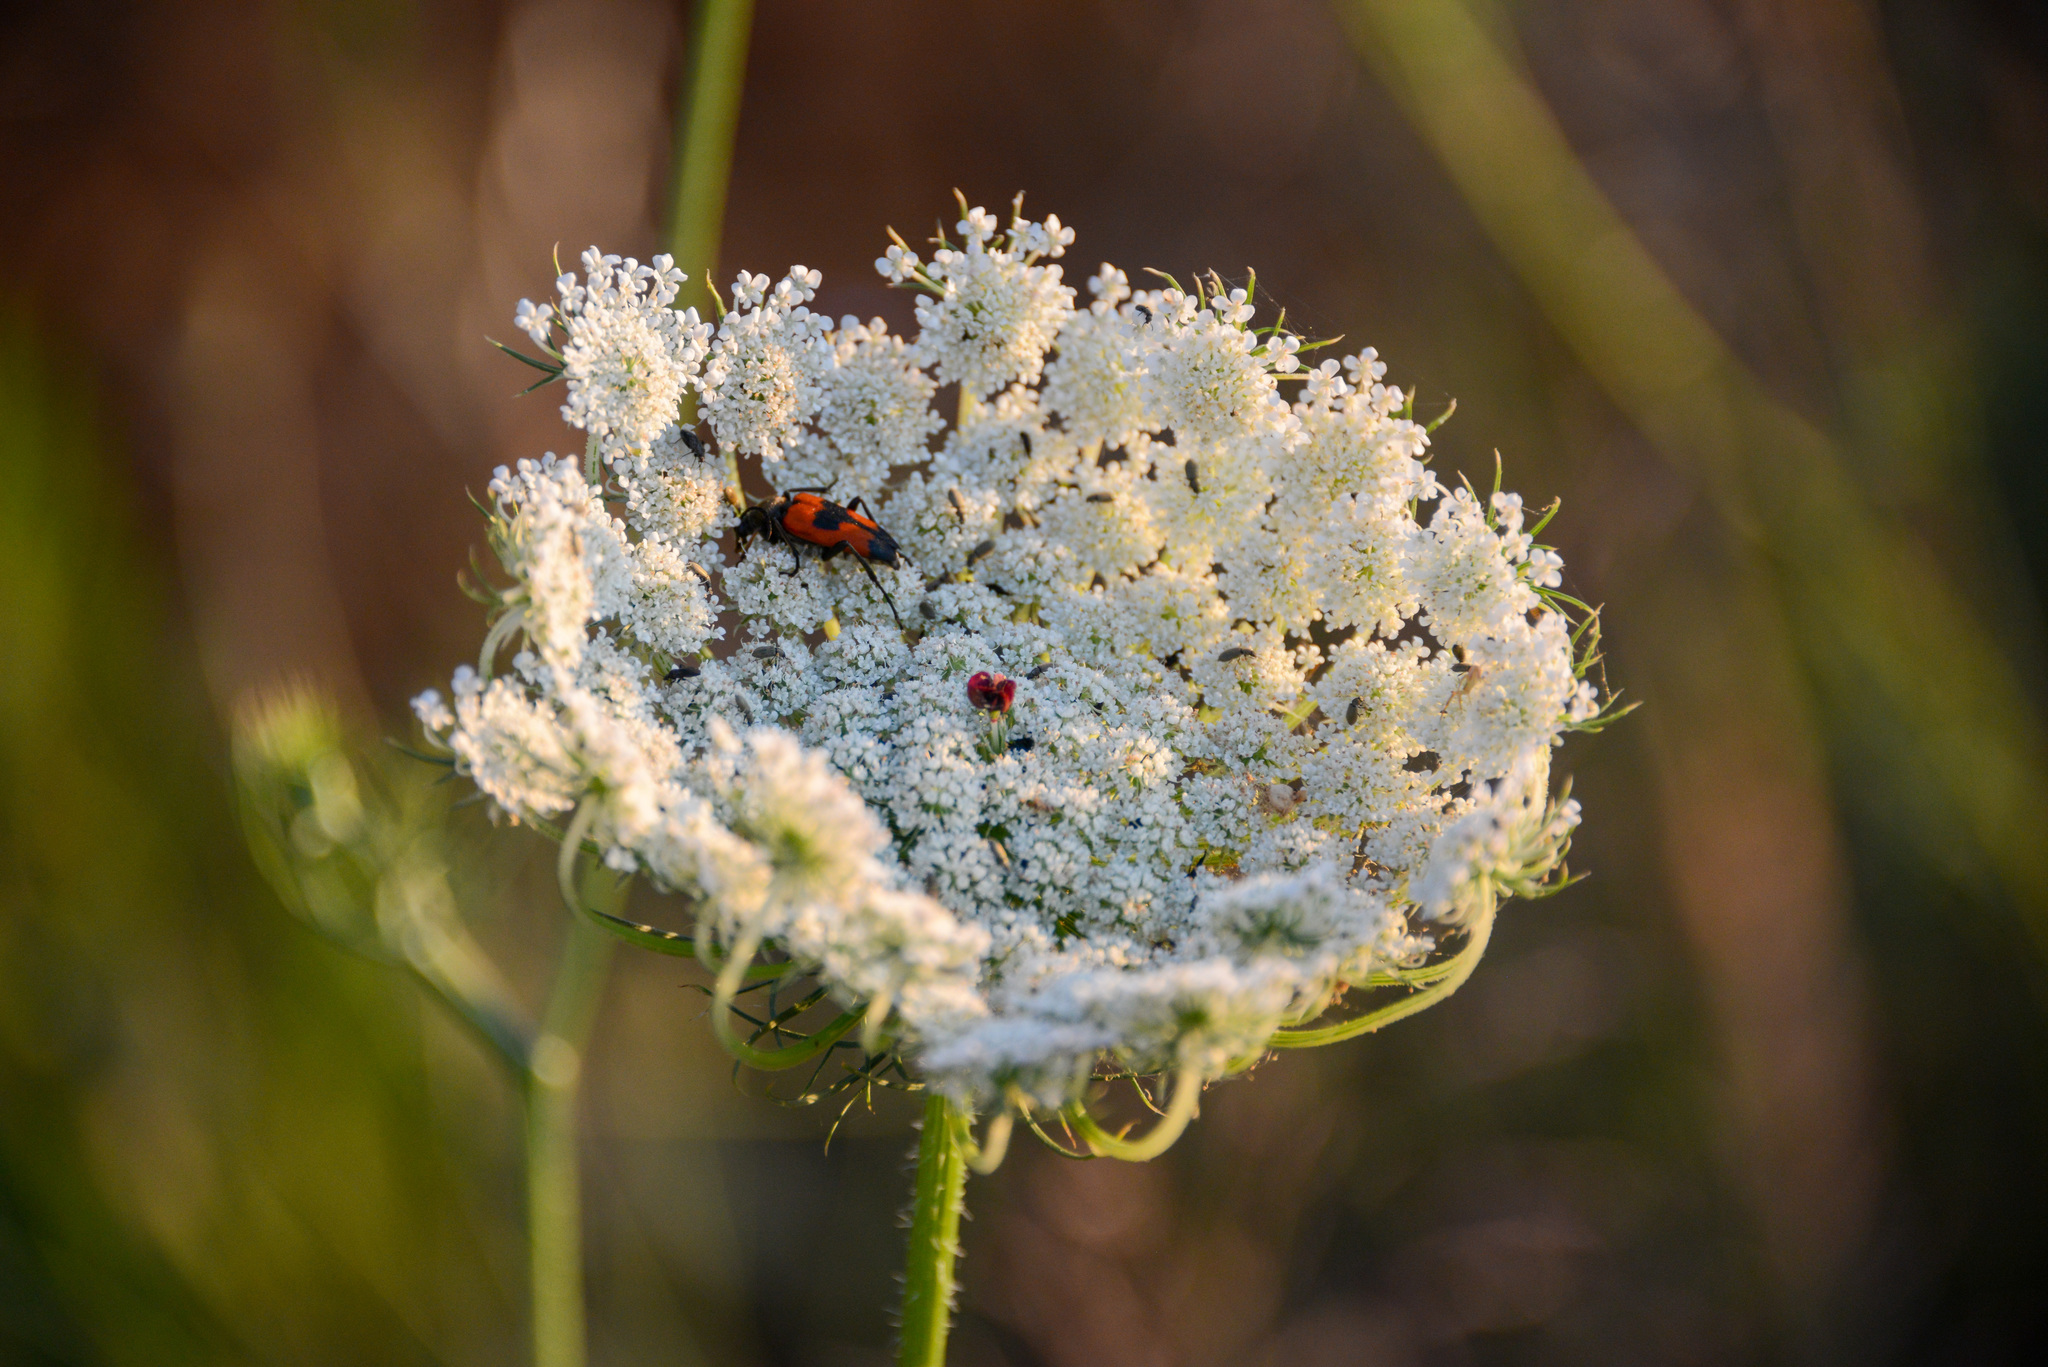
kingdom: Animalia
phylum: Arthropoda
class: Insecta
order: Coleoptera
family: Cerambycidae
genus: Stictoleptura
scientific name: Stictoleptura cordigera
